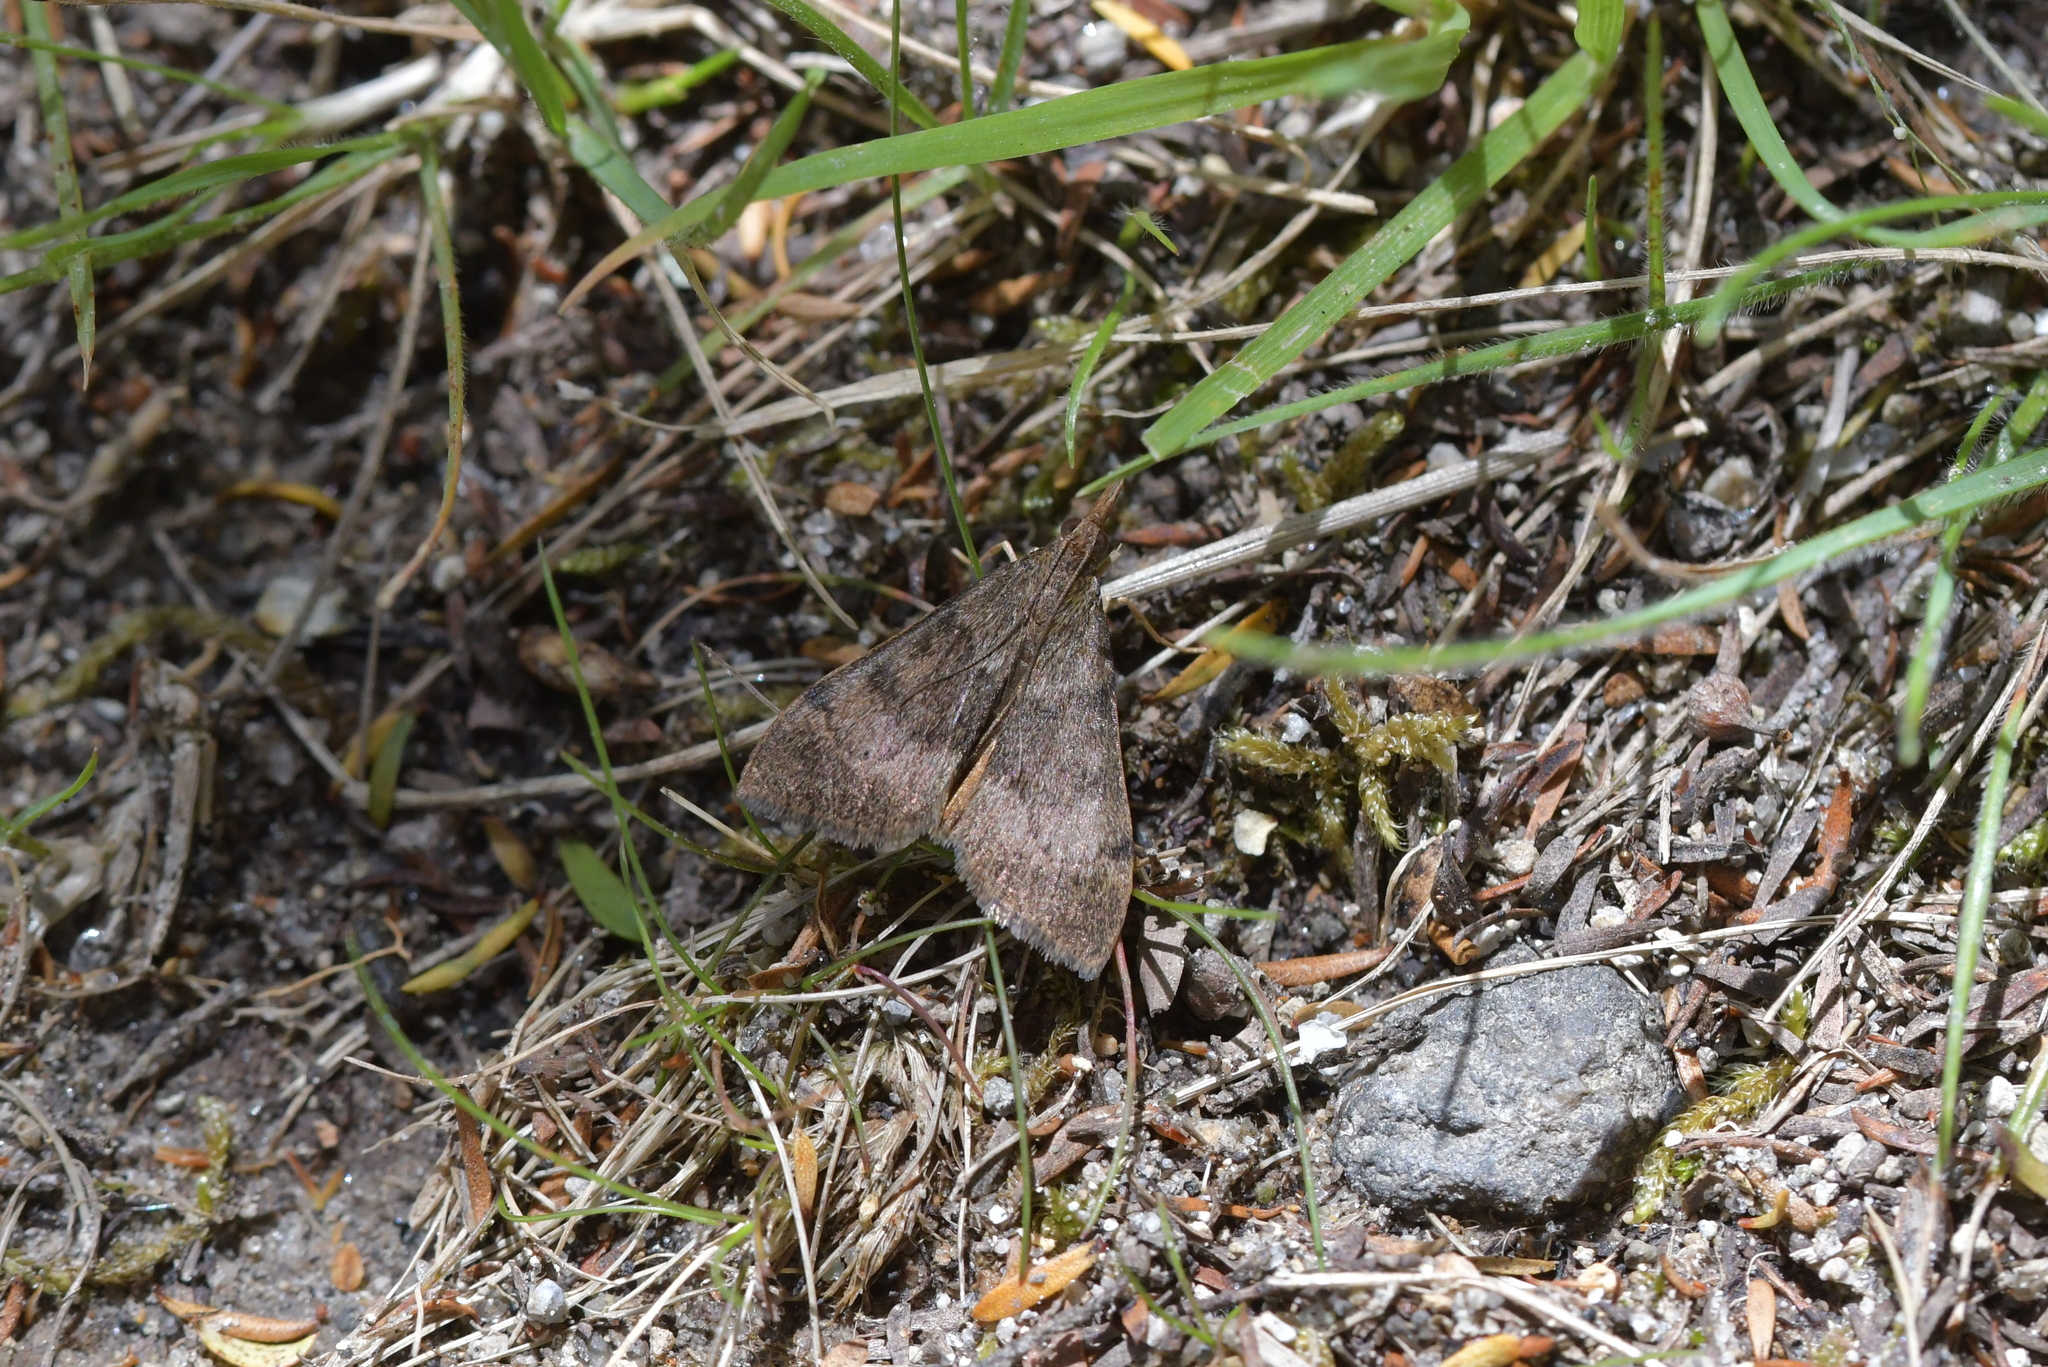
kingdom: Animalia
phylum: Arthropoda
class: Insecta
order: Lepidoptera
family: Crambidae
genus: Uresiphita
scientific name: Uresiphita
